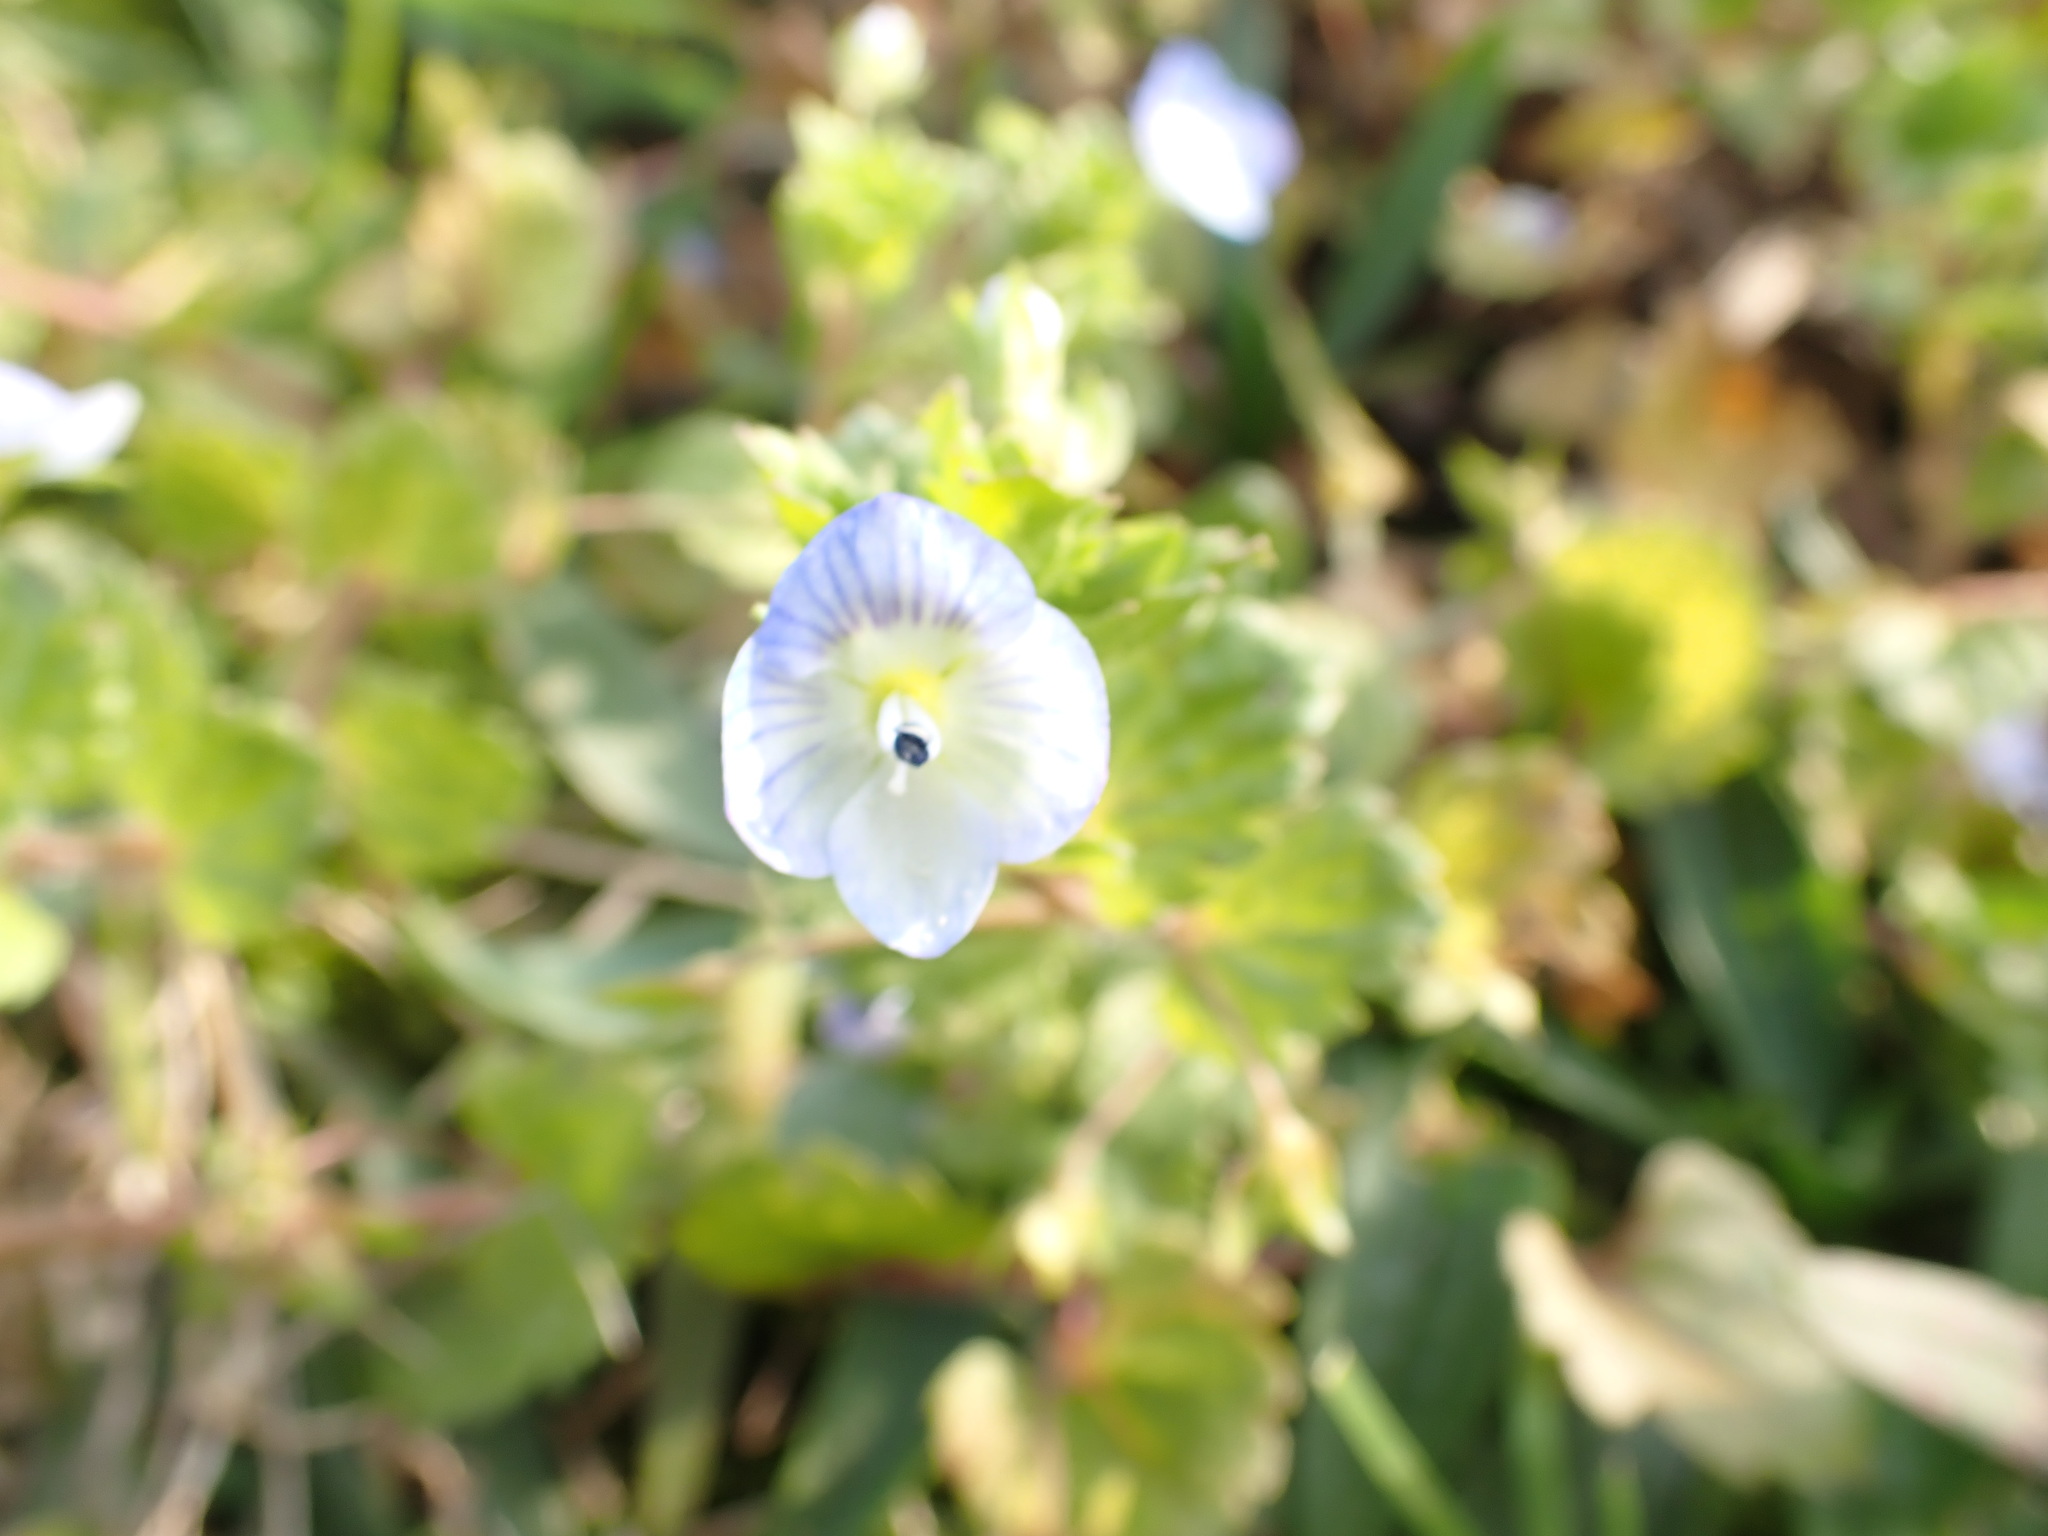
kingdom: Plantae
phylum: Tracheophyta
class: Magnoliopsida
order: Lamiales
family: Plantaginaceae
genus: Veronica
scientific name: Veronica persica
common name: Common field-speedwell
